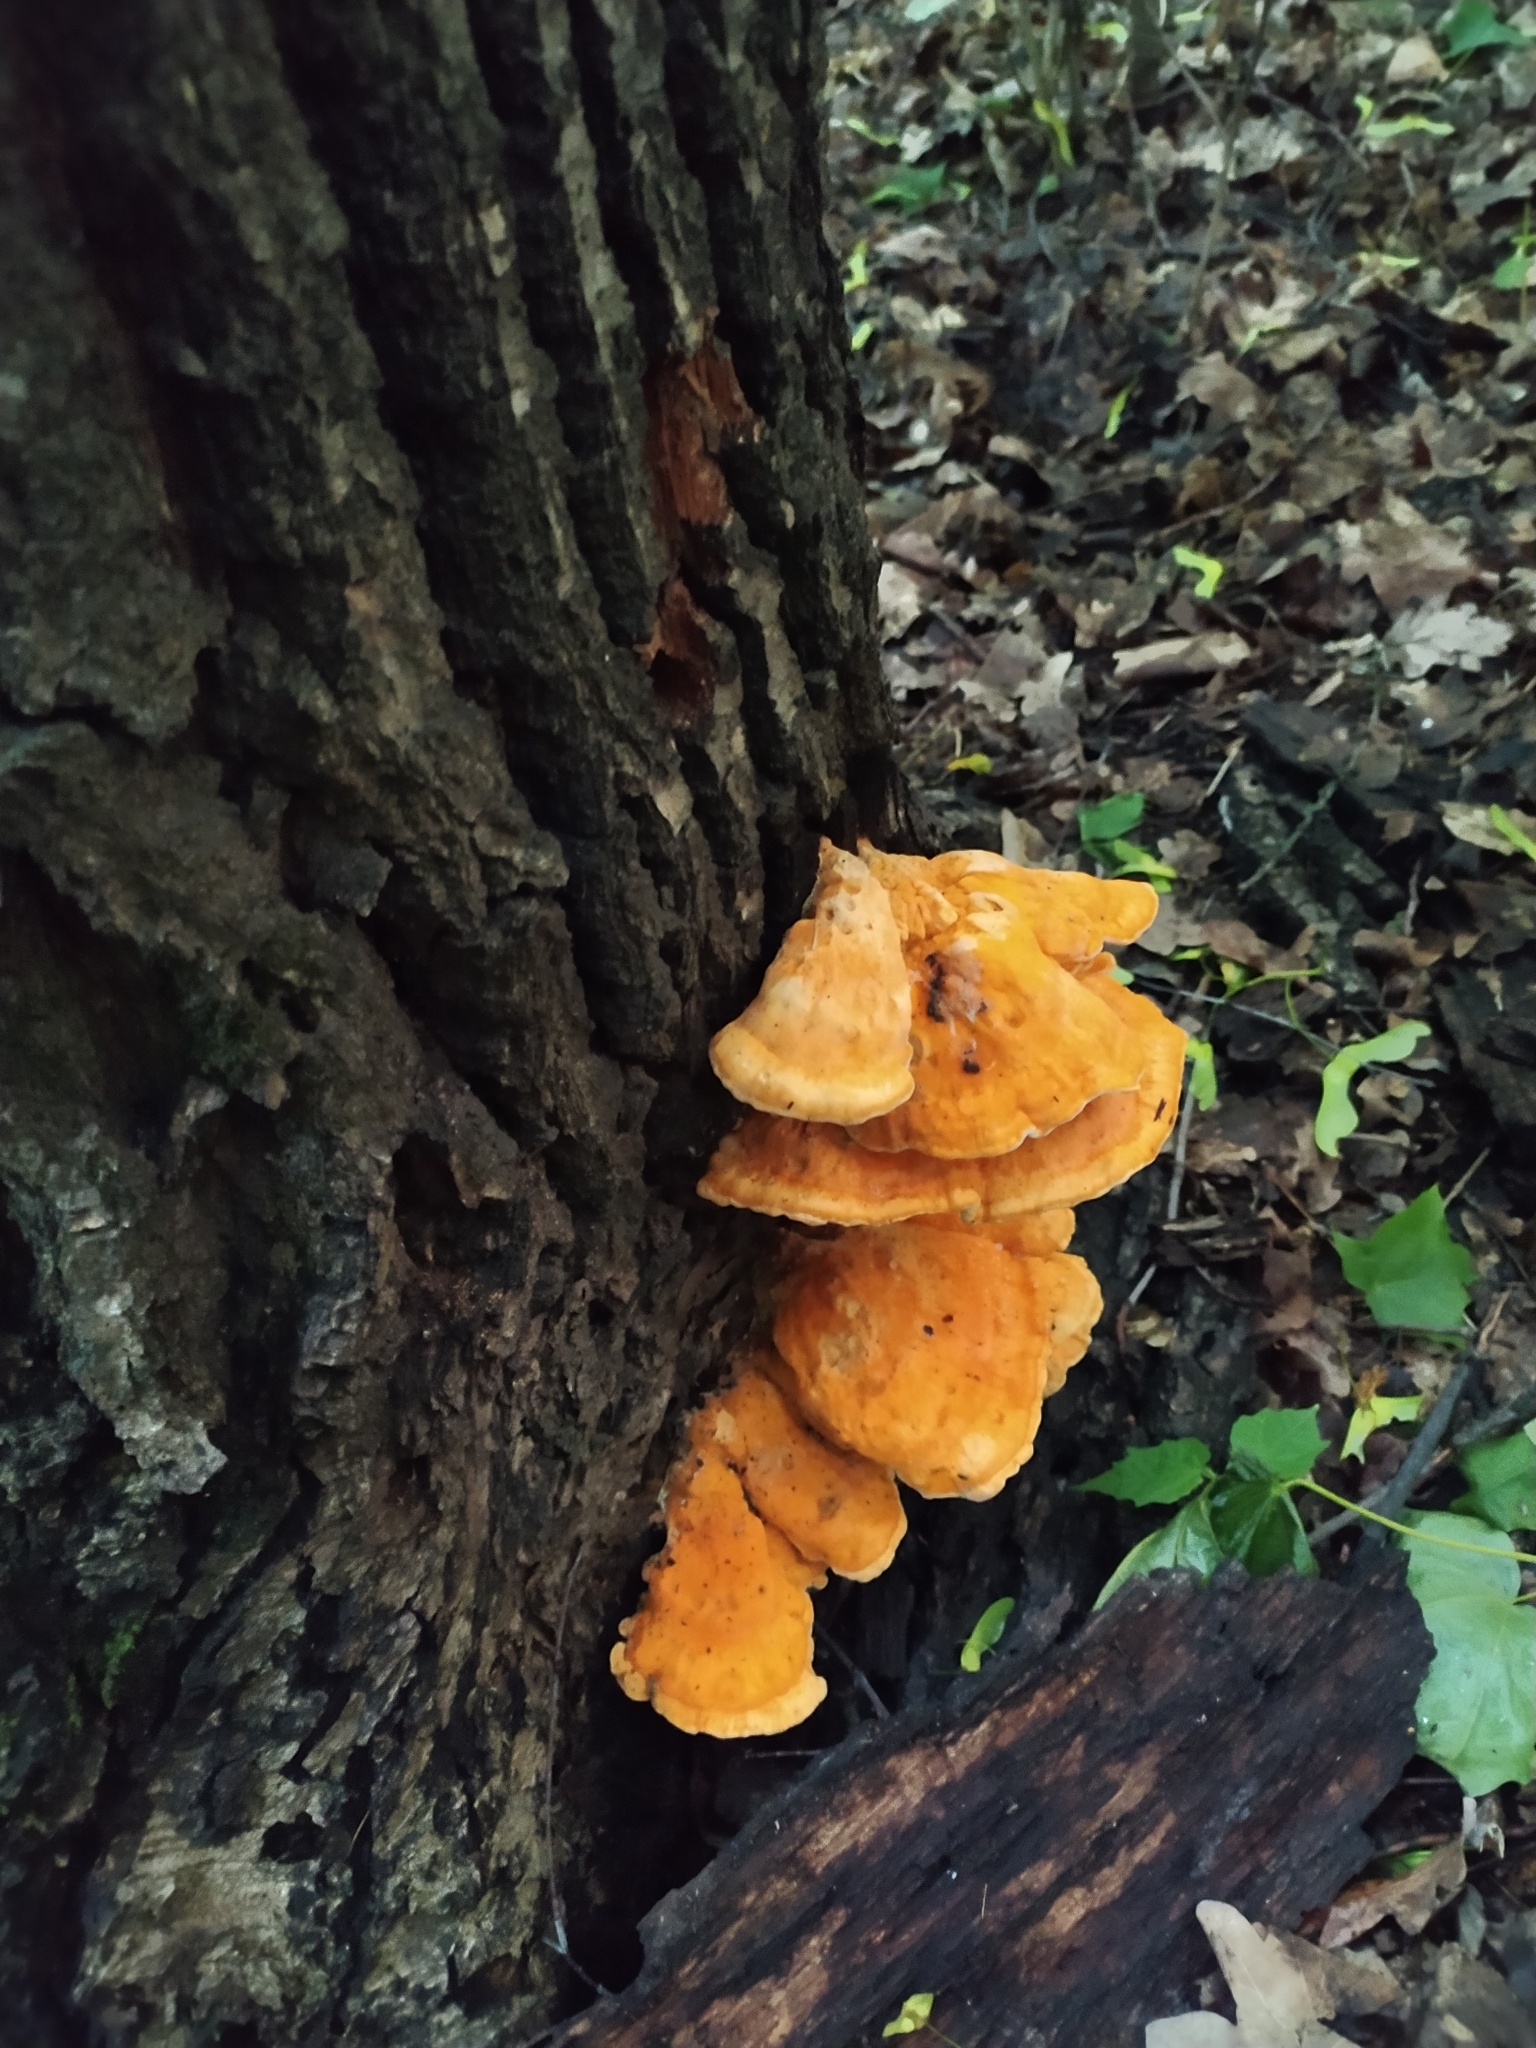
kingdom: Fungi
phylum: Basidiomycota
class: Agaricomycetes
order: Polyporales
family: Laetiporaceae
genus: Laetiporus
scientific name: Laetiporus sulphureus
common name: Chicken of the woods
